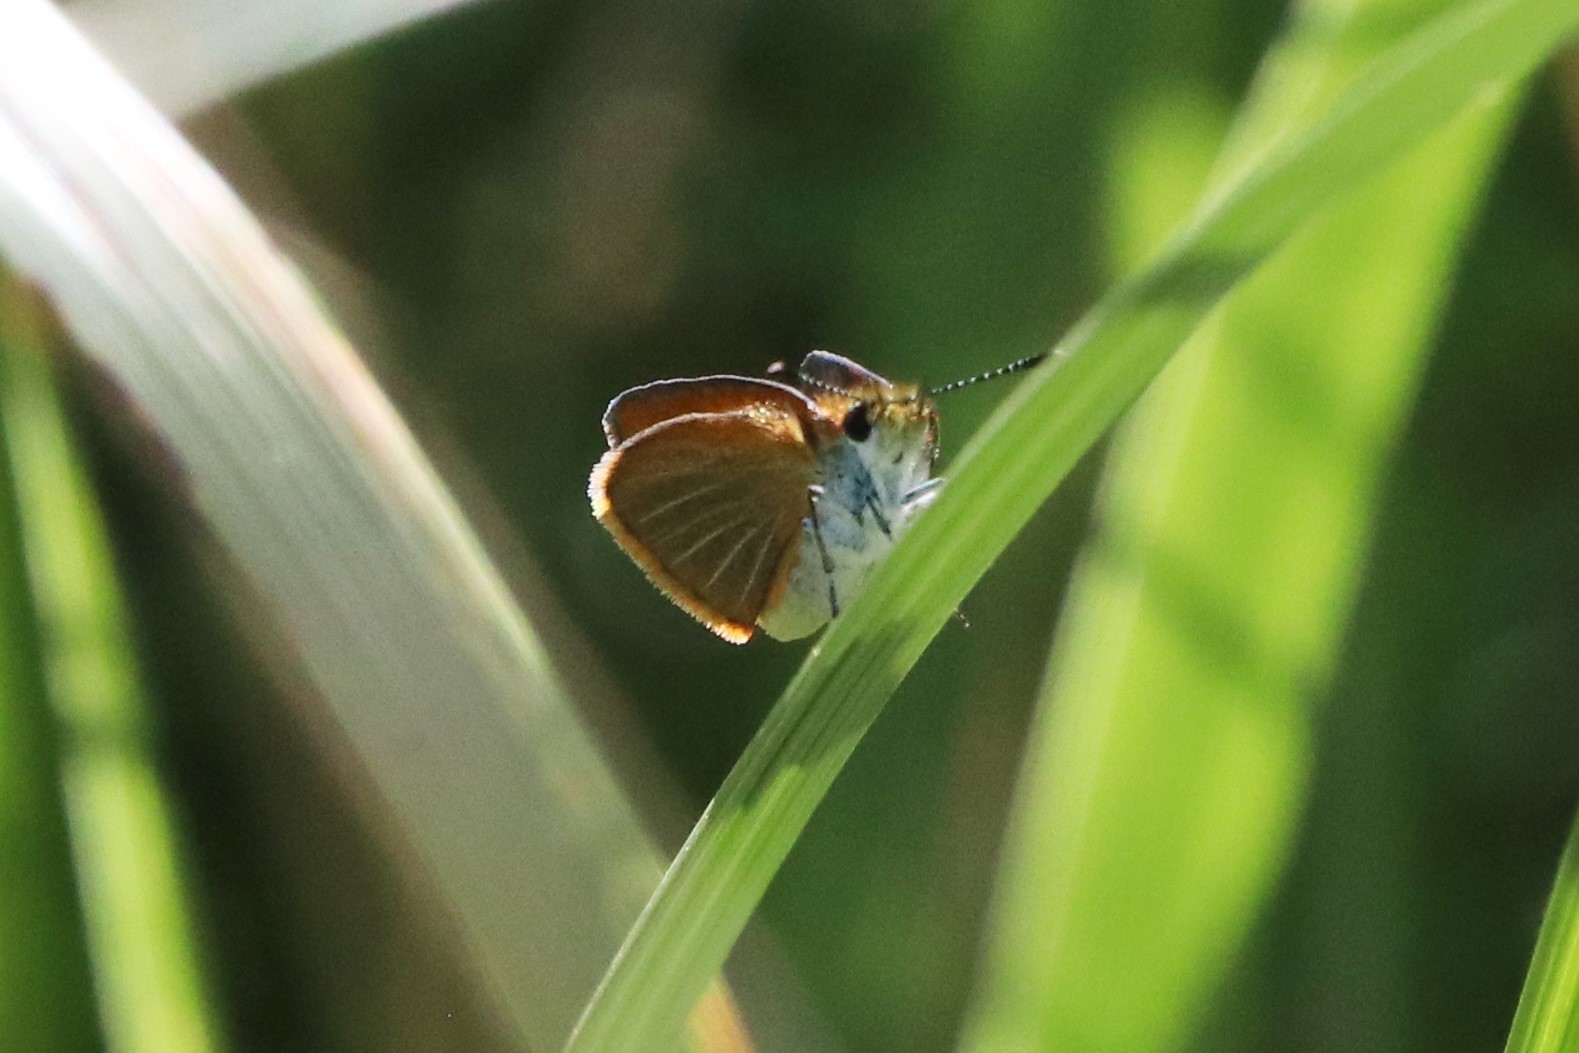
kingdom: Animalia
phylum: Arthropoda
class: Insecta
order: Lepidoptera
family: Hesperiidae
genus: Ancyloxypha
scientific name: Ancyloxypha numitor
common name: Least skipper
